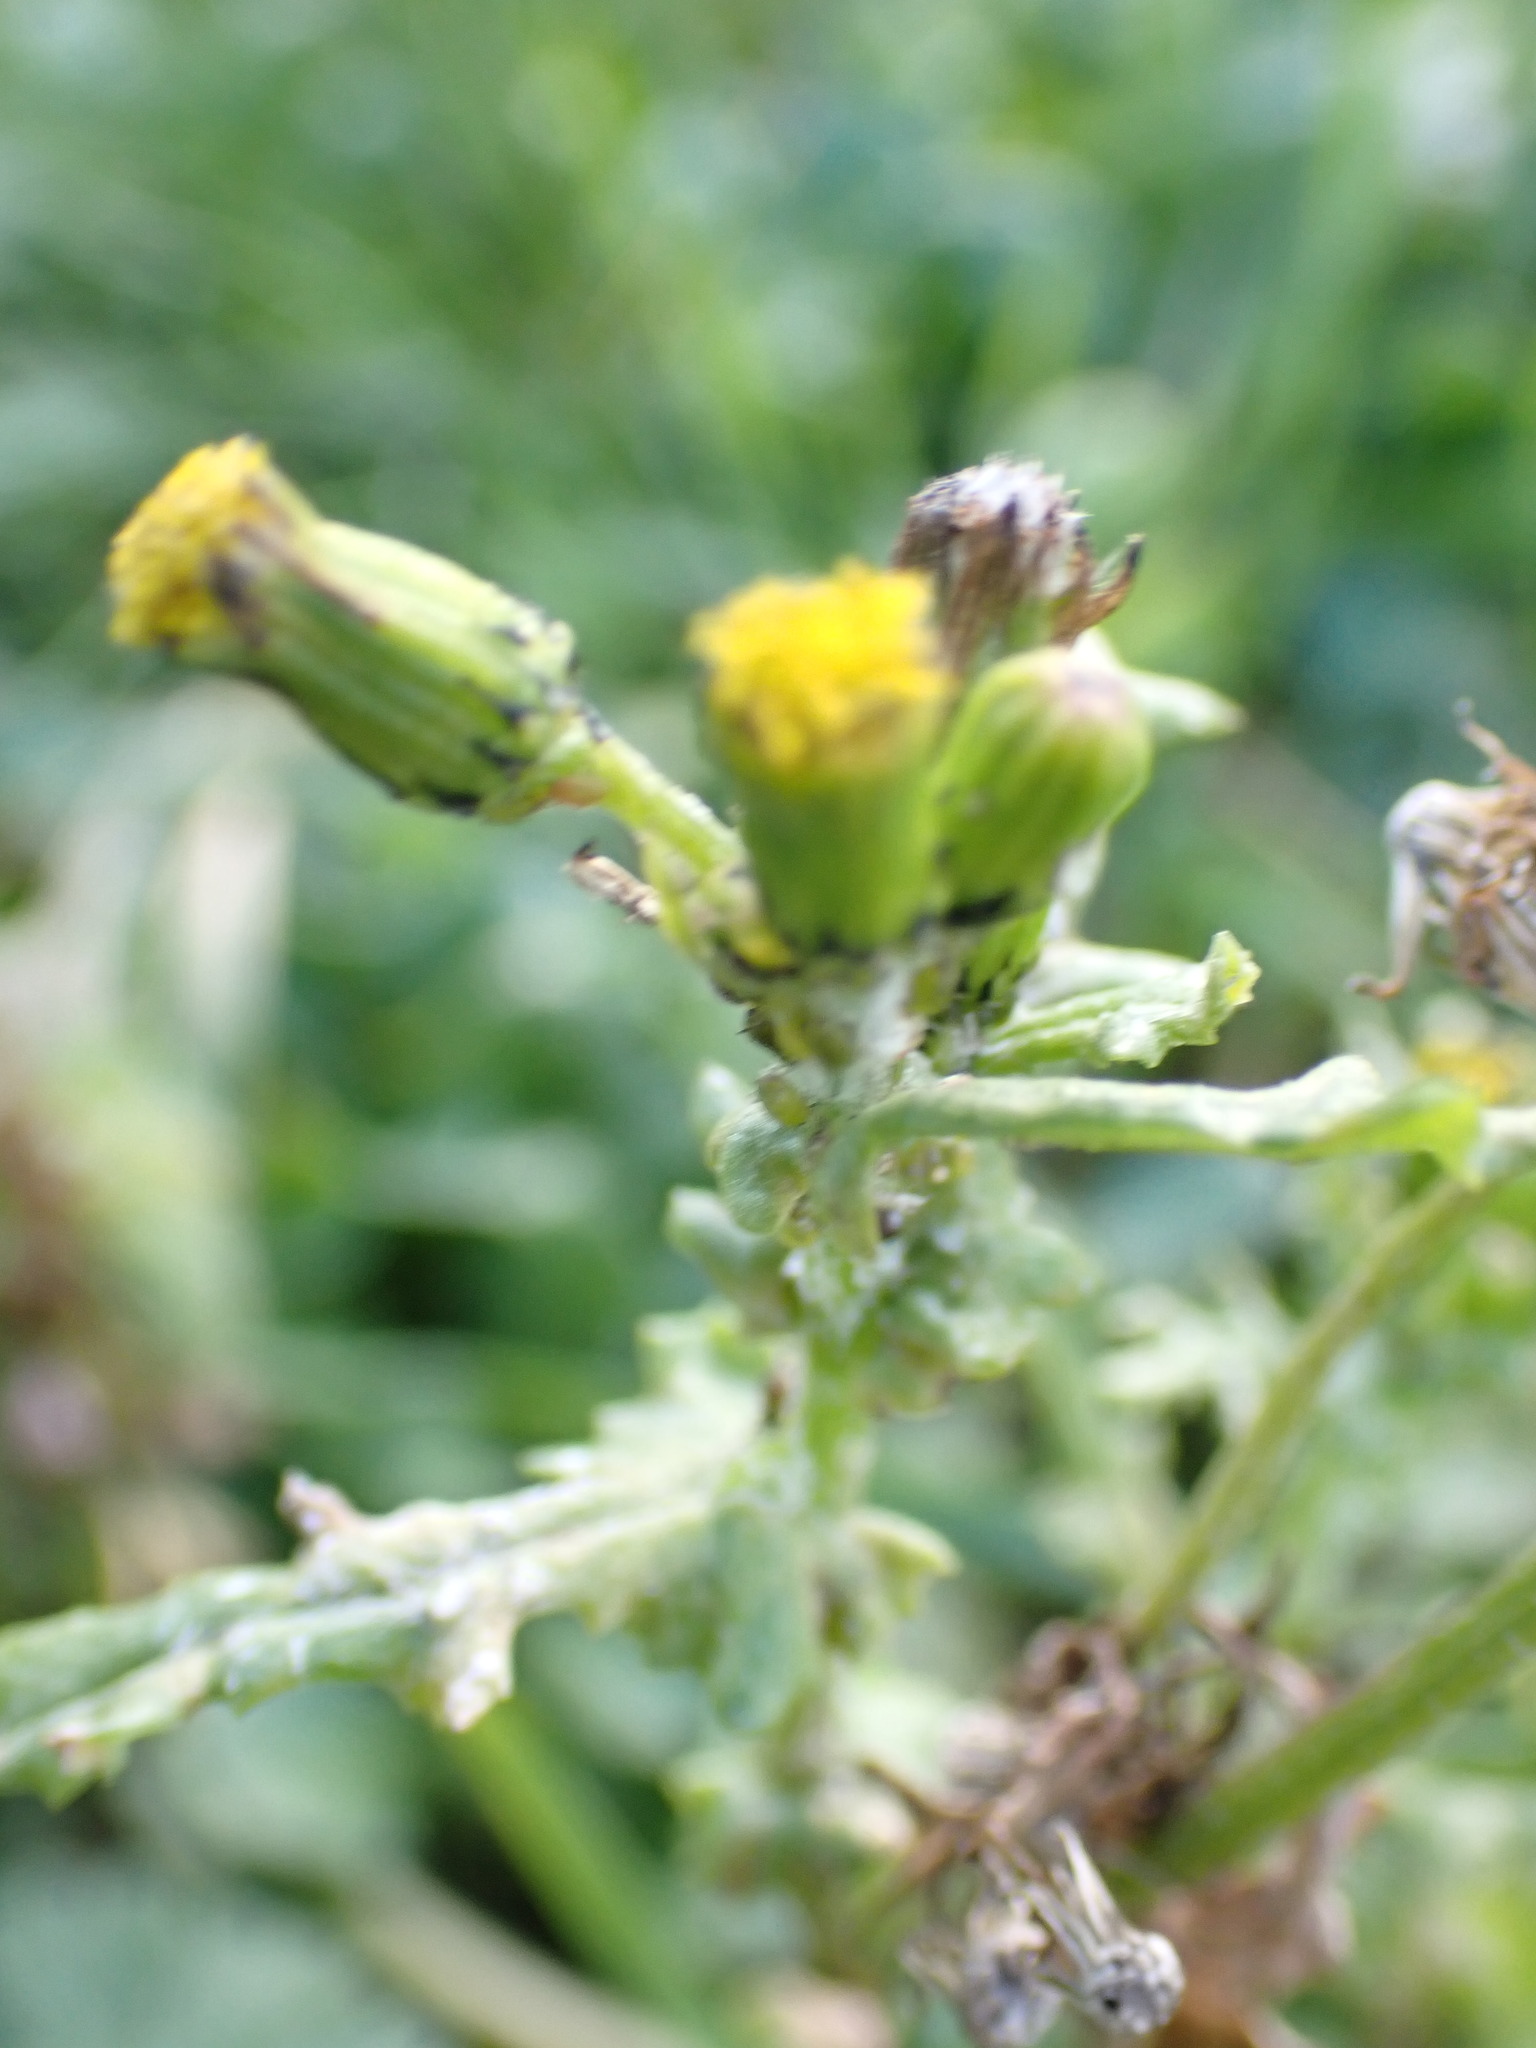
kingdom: Plantae
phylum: Tracheophyta
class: Magnoliopsida
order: Asterales
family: Asteraceae
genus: Senecio
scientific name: Senecio vulgaris
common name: Old-man-in-the-spring
